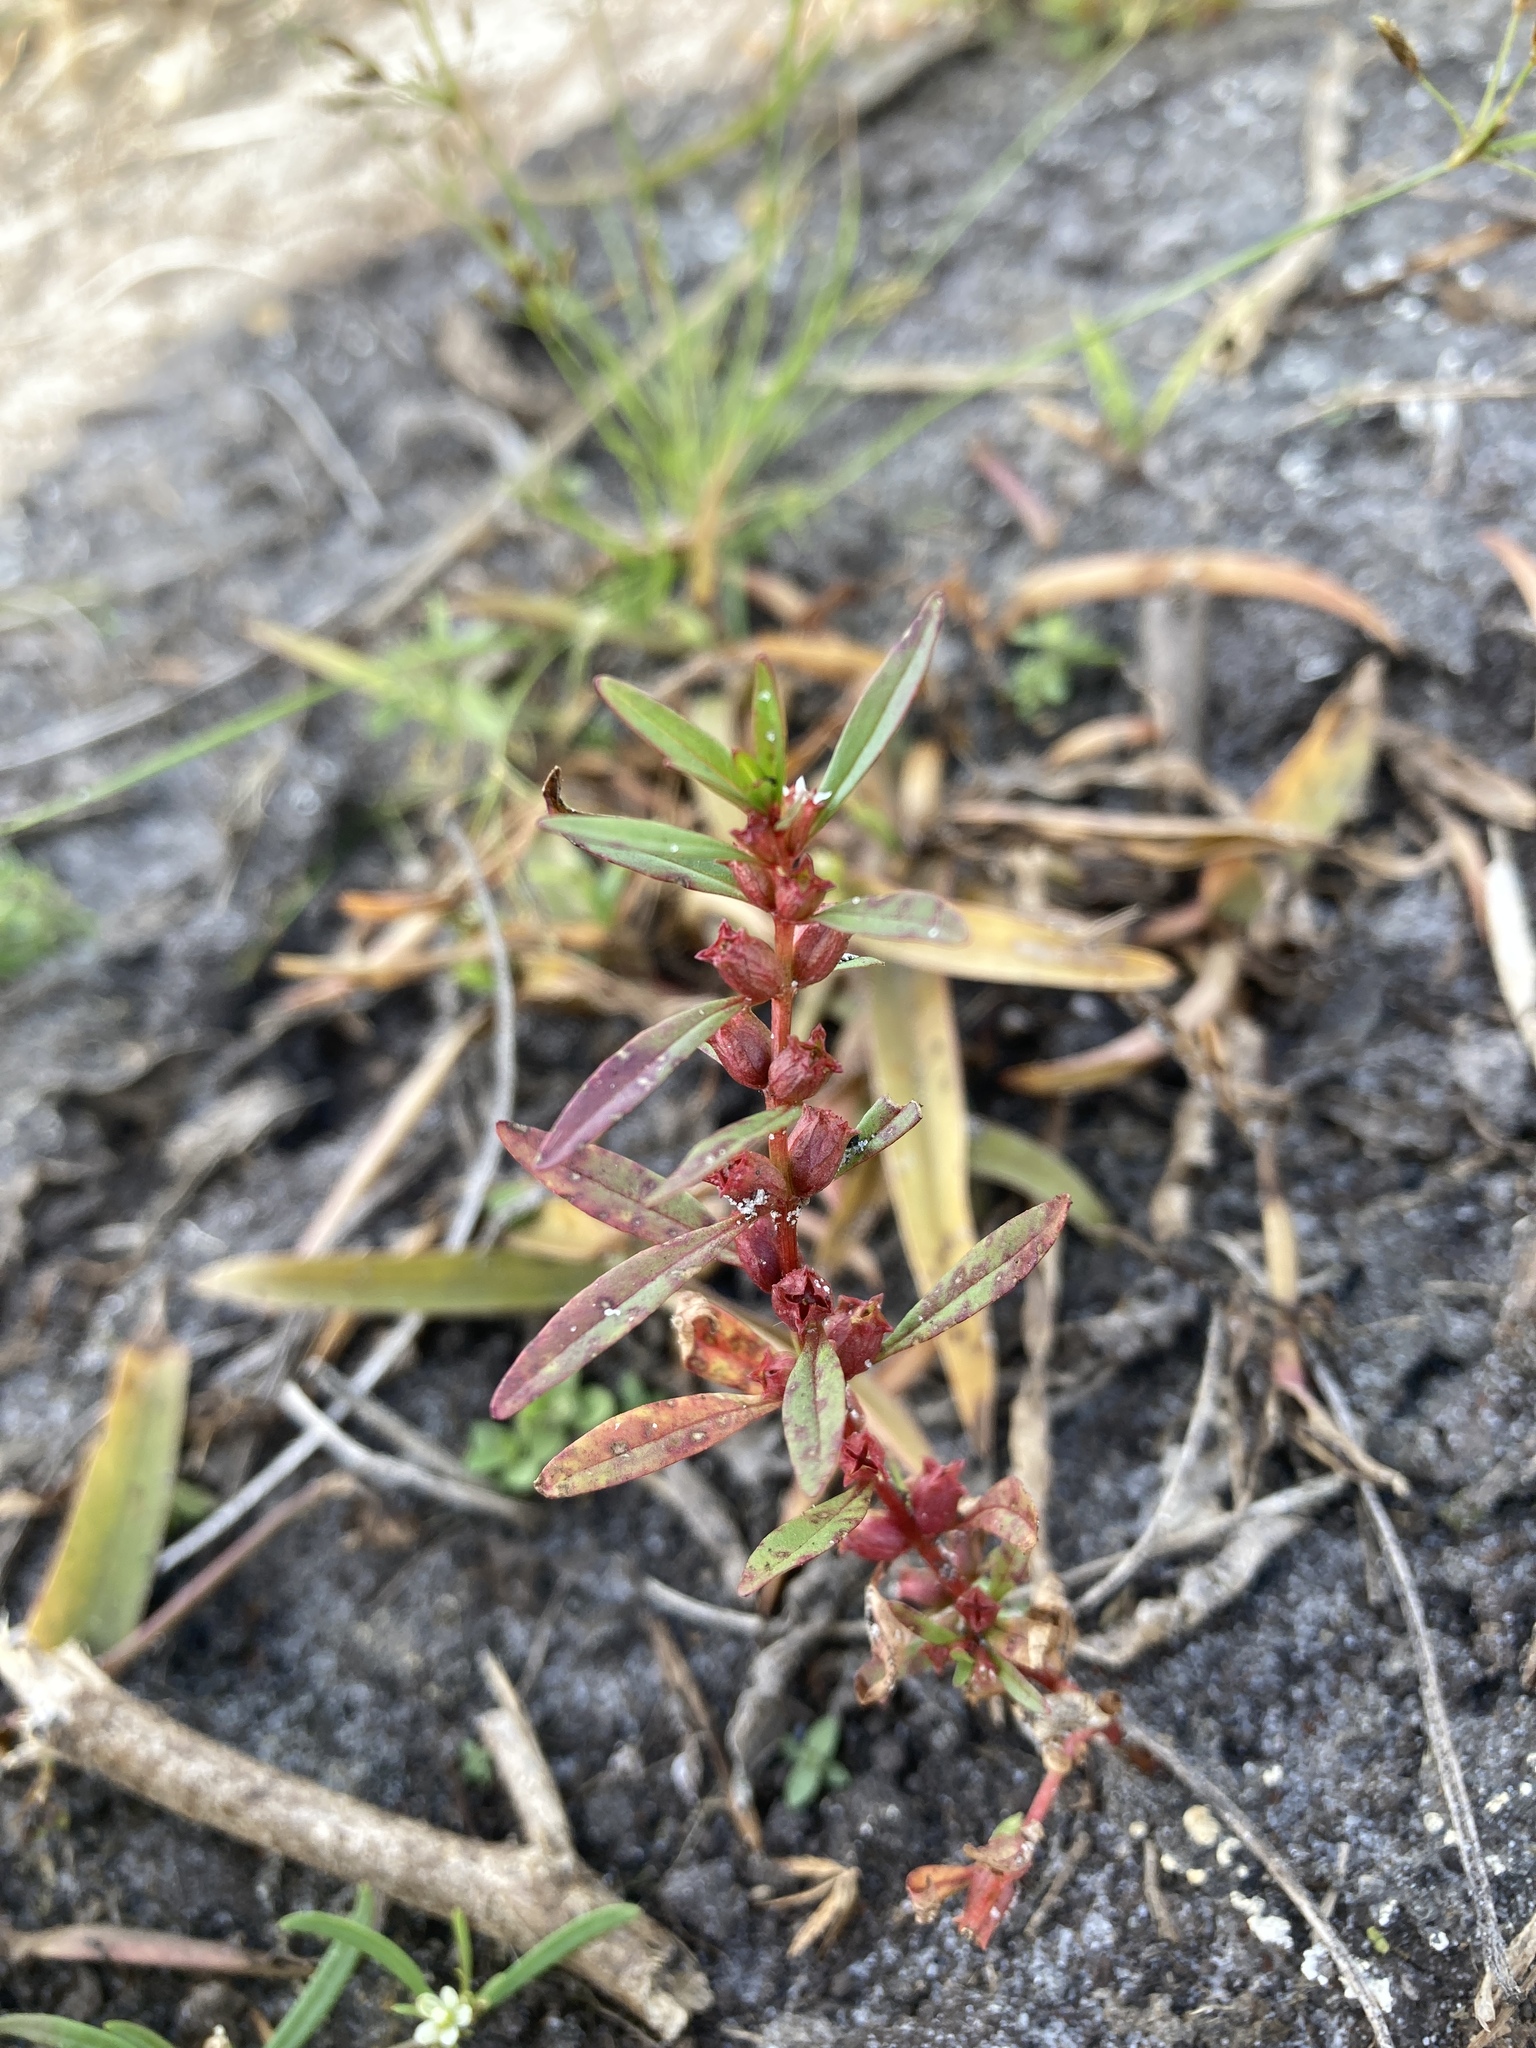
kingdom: Plantae
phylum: Tracheophyta
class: Magnoliopsida
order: Myrtales
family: Lythraceae
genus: Rotala
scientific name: Rotala ramosior
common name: Lowland rotala
